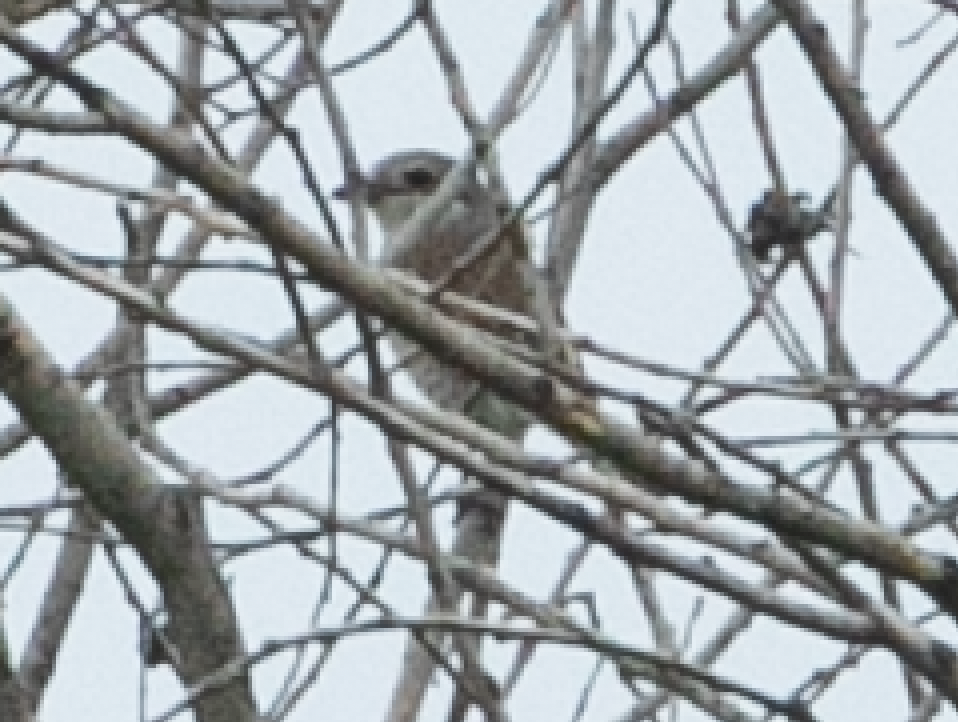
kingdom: Animalia
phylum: Chordata
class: Aves
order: Passeriformes
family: Laniidae
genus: Lanius
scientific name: Lanius collurio
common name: Red-backed shrike
